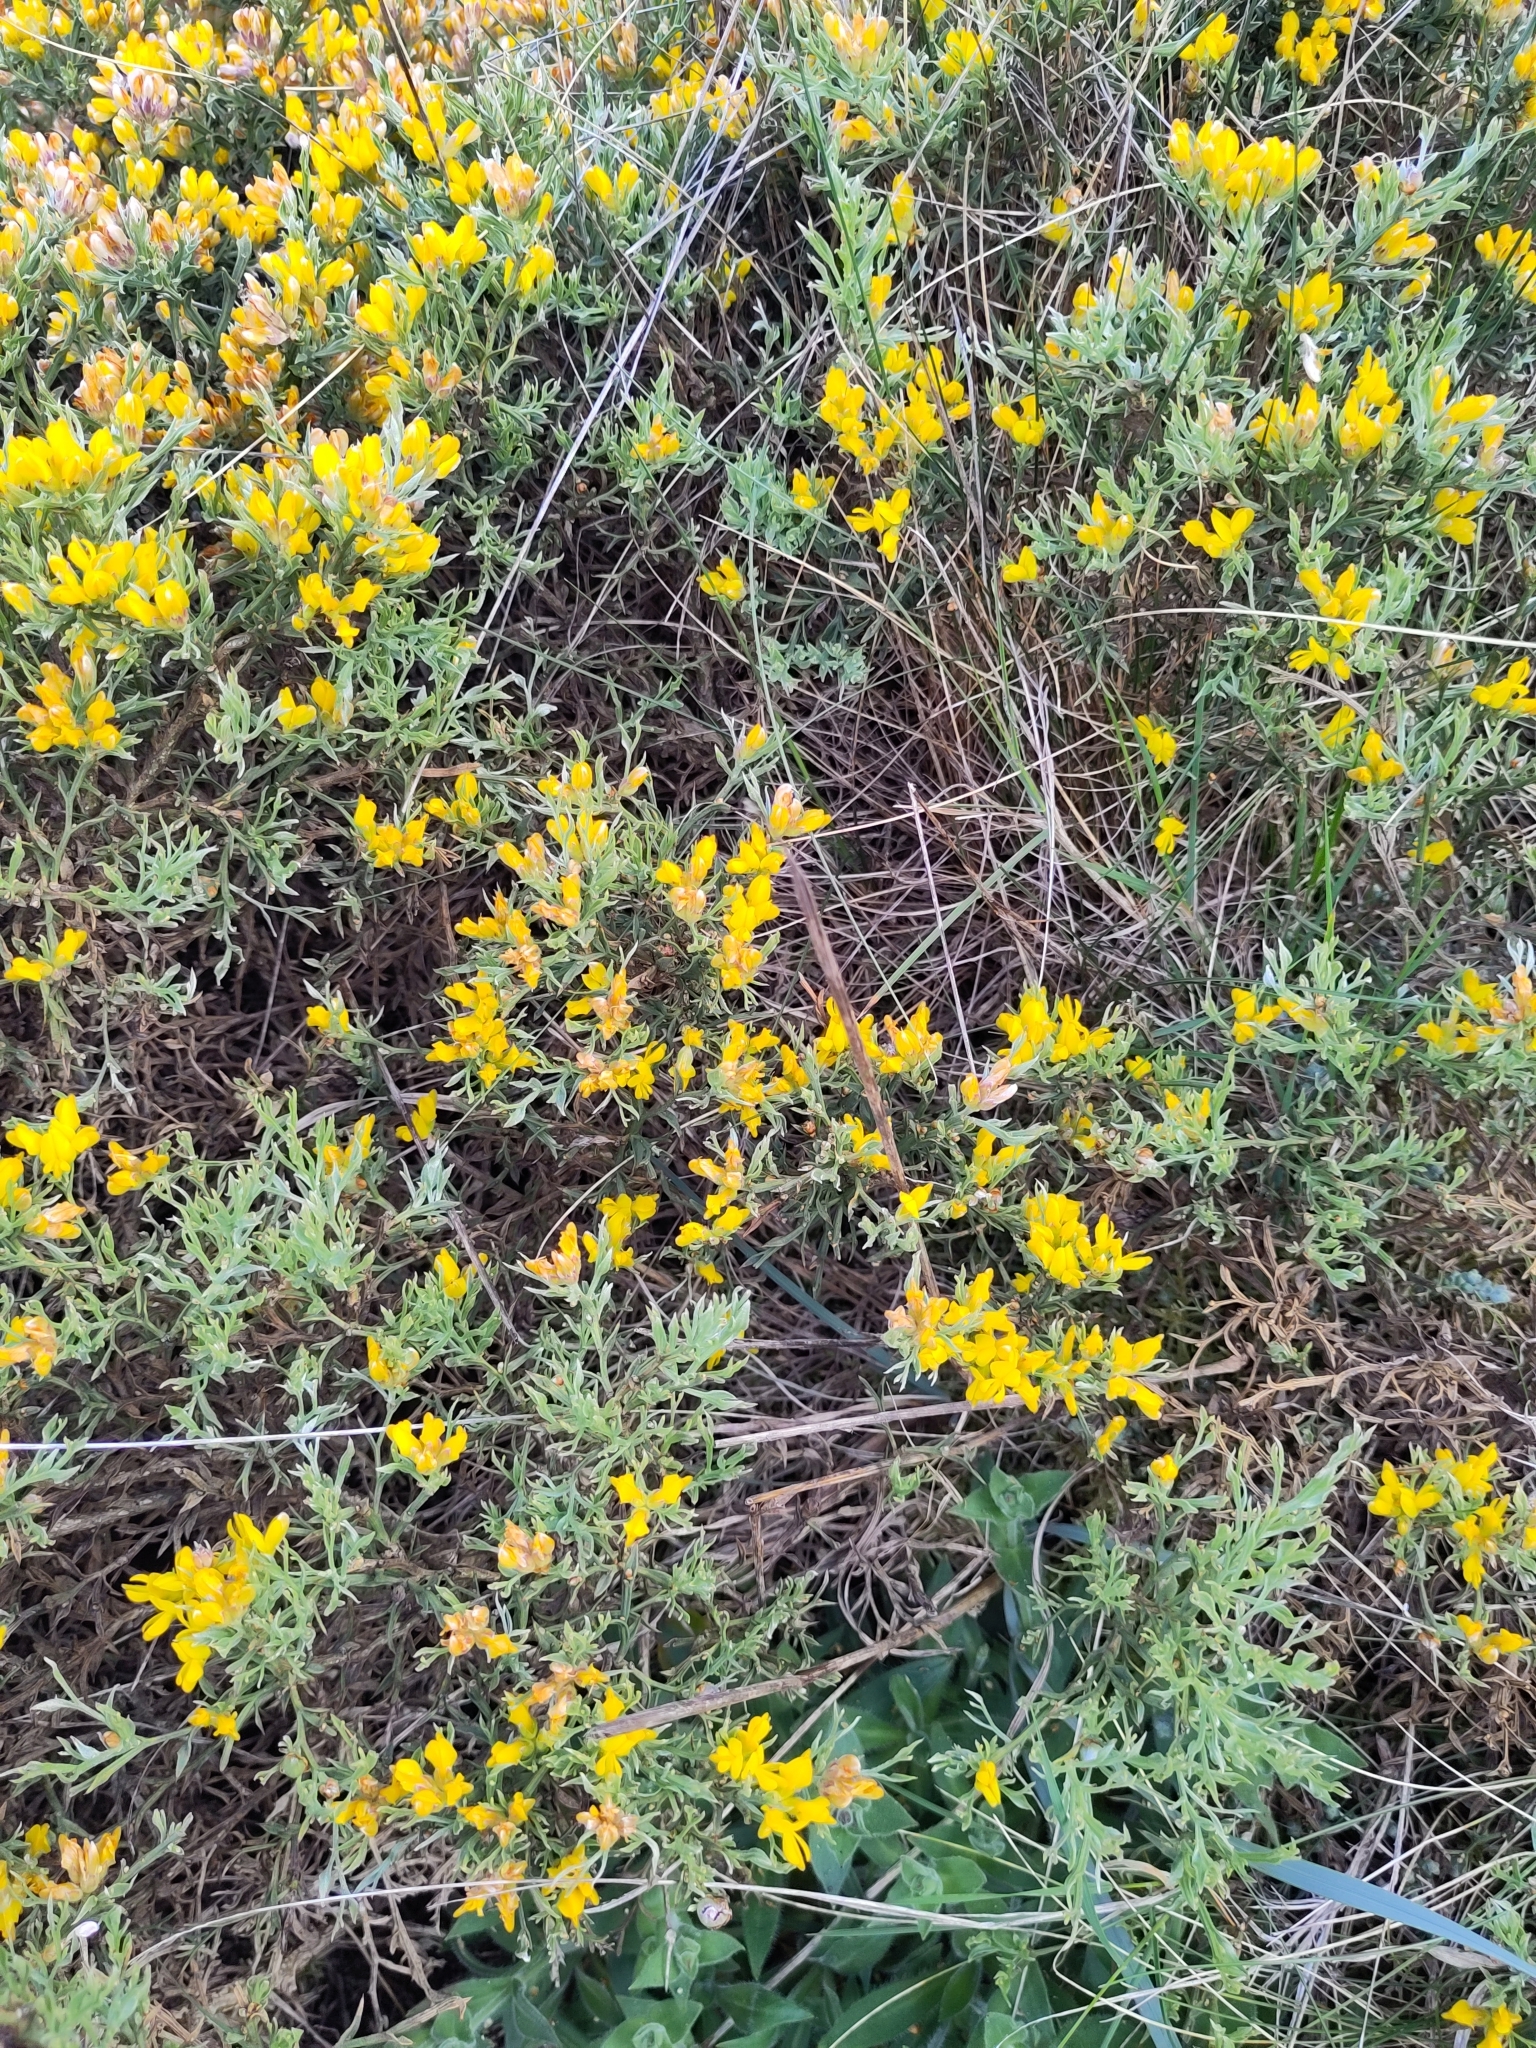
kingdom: Plantae
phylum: Tracheophyta
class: Magnoliopsida
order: Fabales
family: Fabaceae
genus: Genista
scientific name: Genista tridentata
